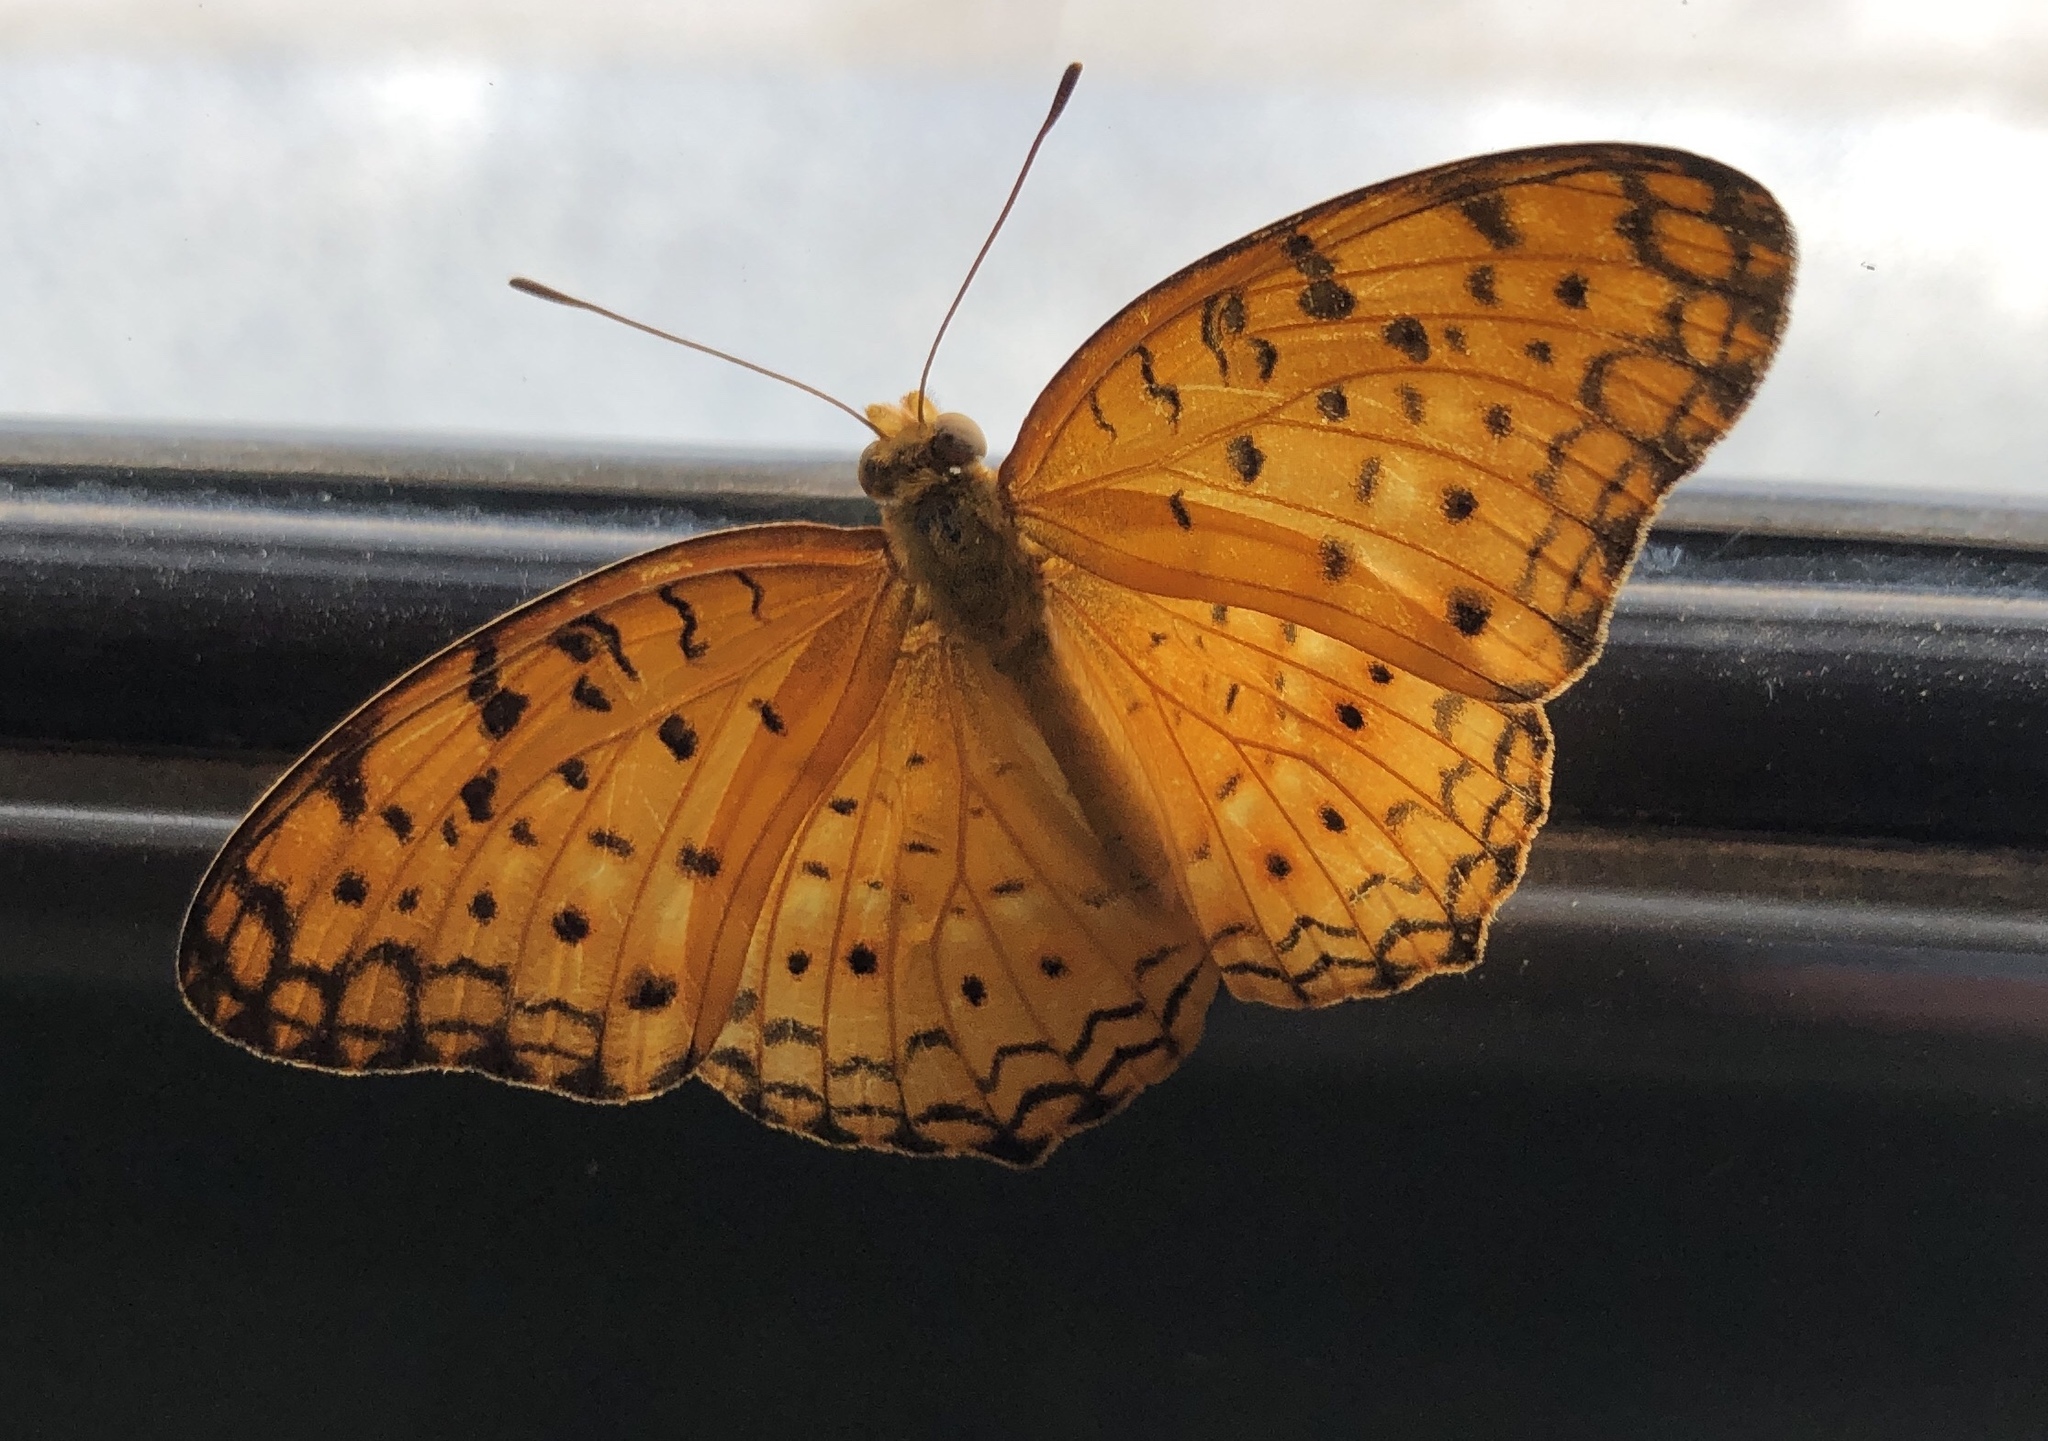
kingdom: Animalia
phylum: Arthropoda
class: Insecta
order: Lepidoptera
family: Nymphalidae
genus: Phalanta
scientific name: Phalanta phalantha
